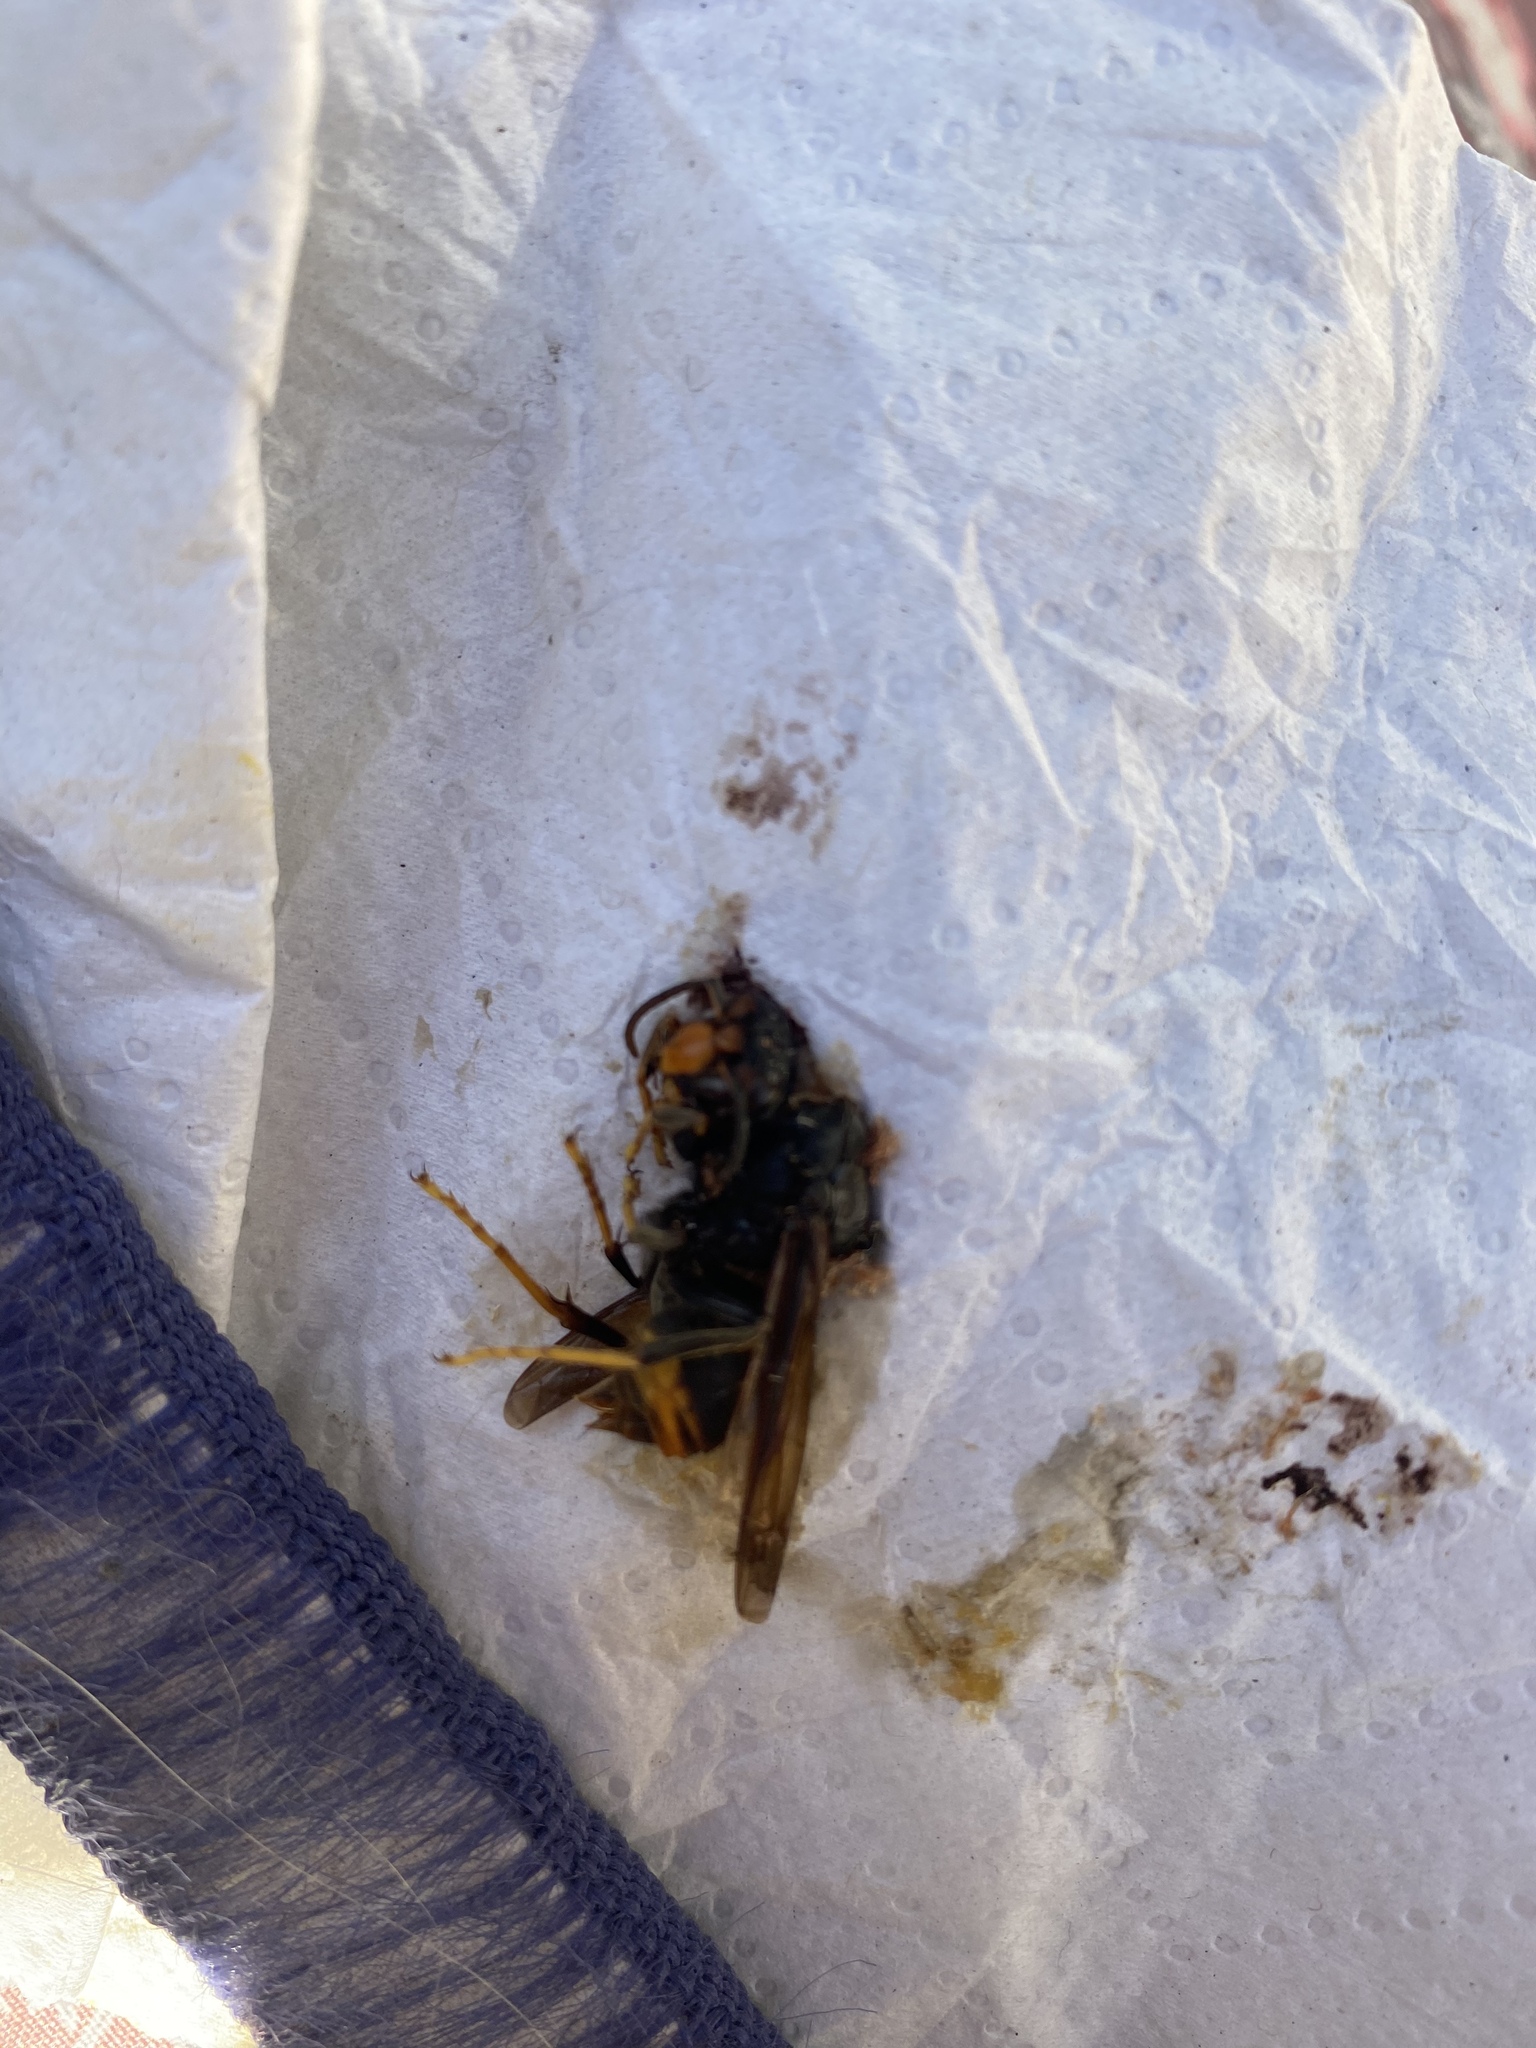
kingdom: Animalia
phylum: Arthropoda
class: Insecta
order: Hymenoptera
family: Vespidae
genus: Vespa
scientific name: Vespa velutina
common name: Asian hornet
